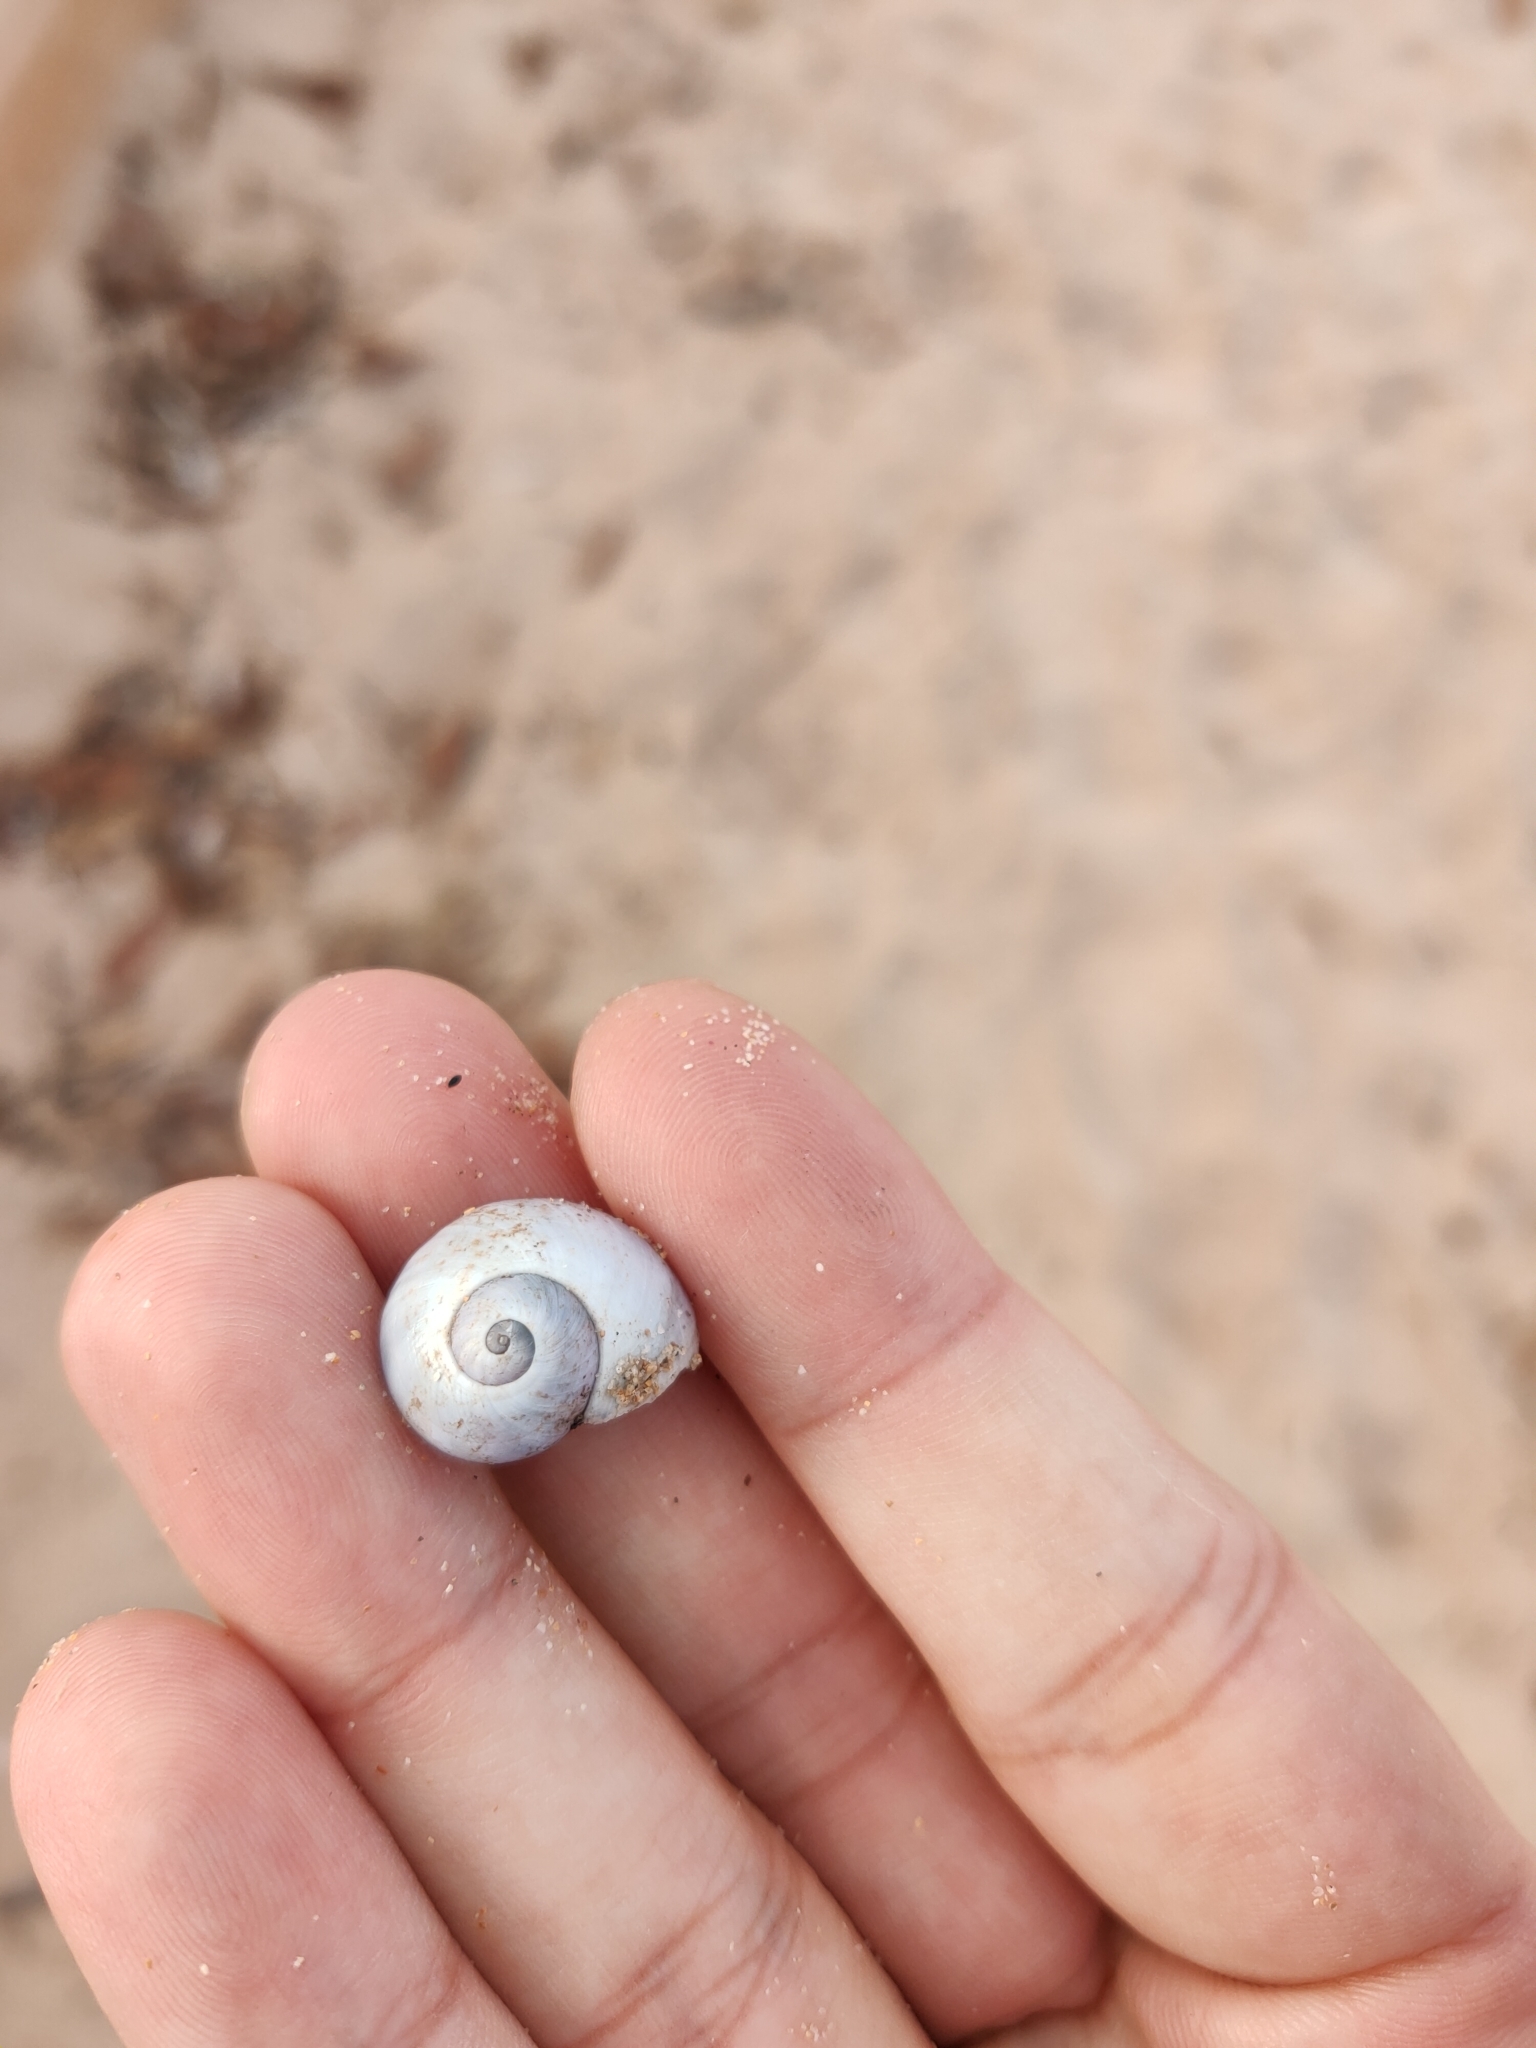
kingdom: Animalia
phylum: Mollusca
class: Gastropoda
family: Epitoniidae
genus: Janthina
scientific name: Janthina janthina
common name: Common janthina
